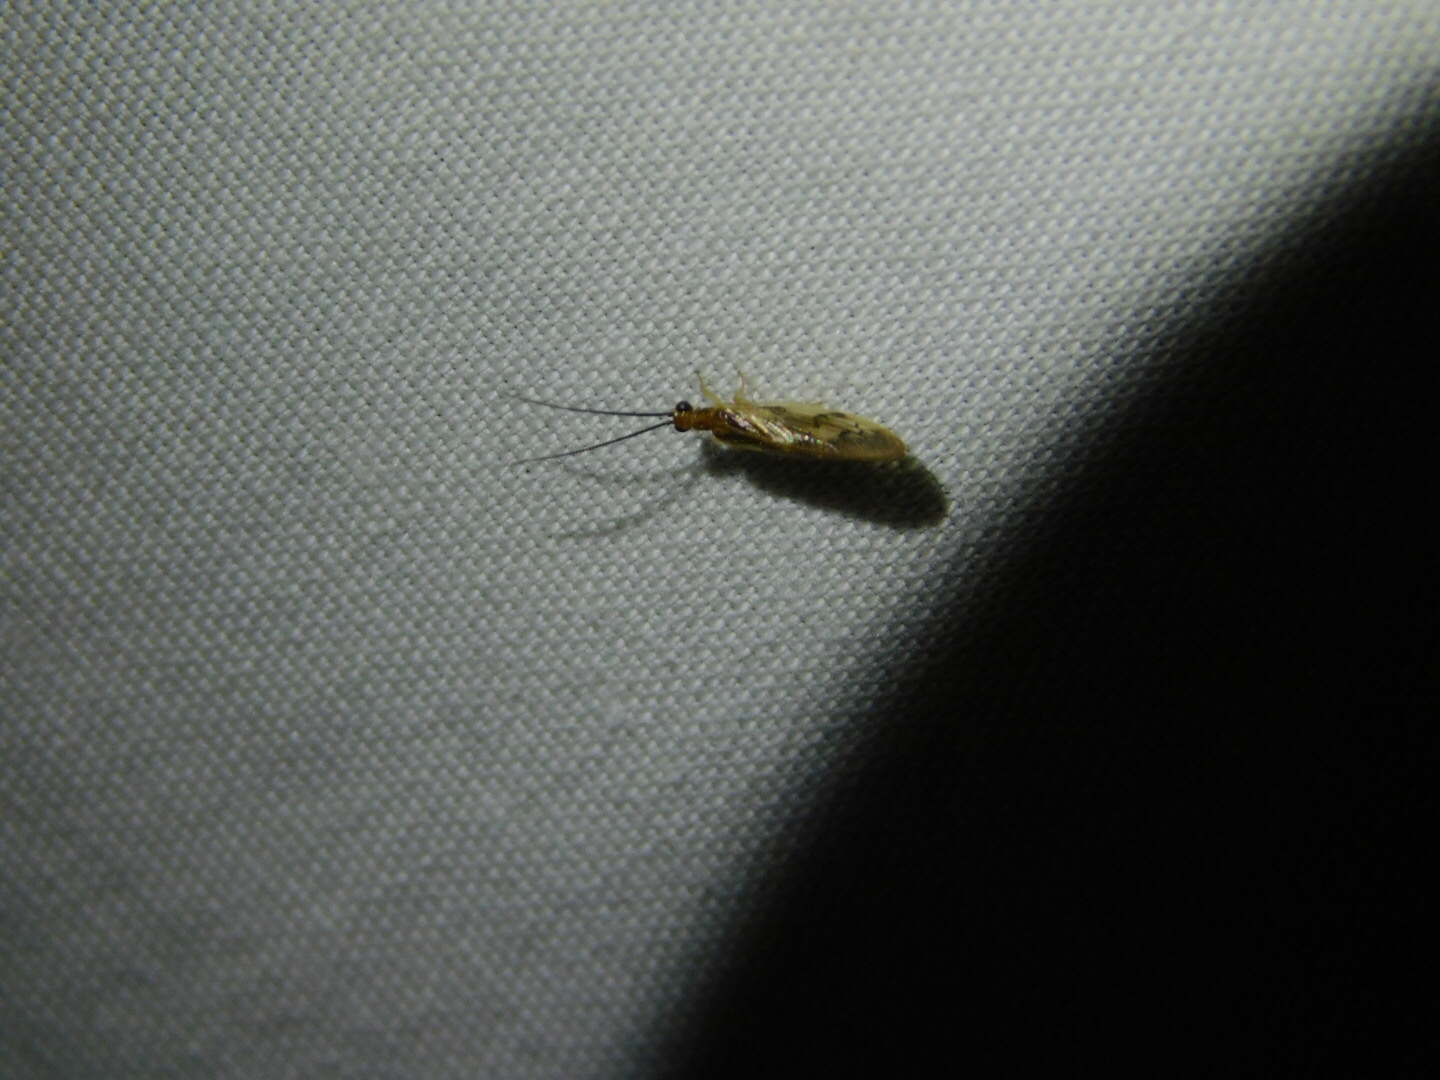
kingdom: Animalia
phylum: Arthropoda
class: Insecta
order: Neuroptera
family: Sisyridae
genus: Climacia
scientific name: Climacia areolaris
